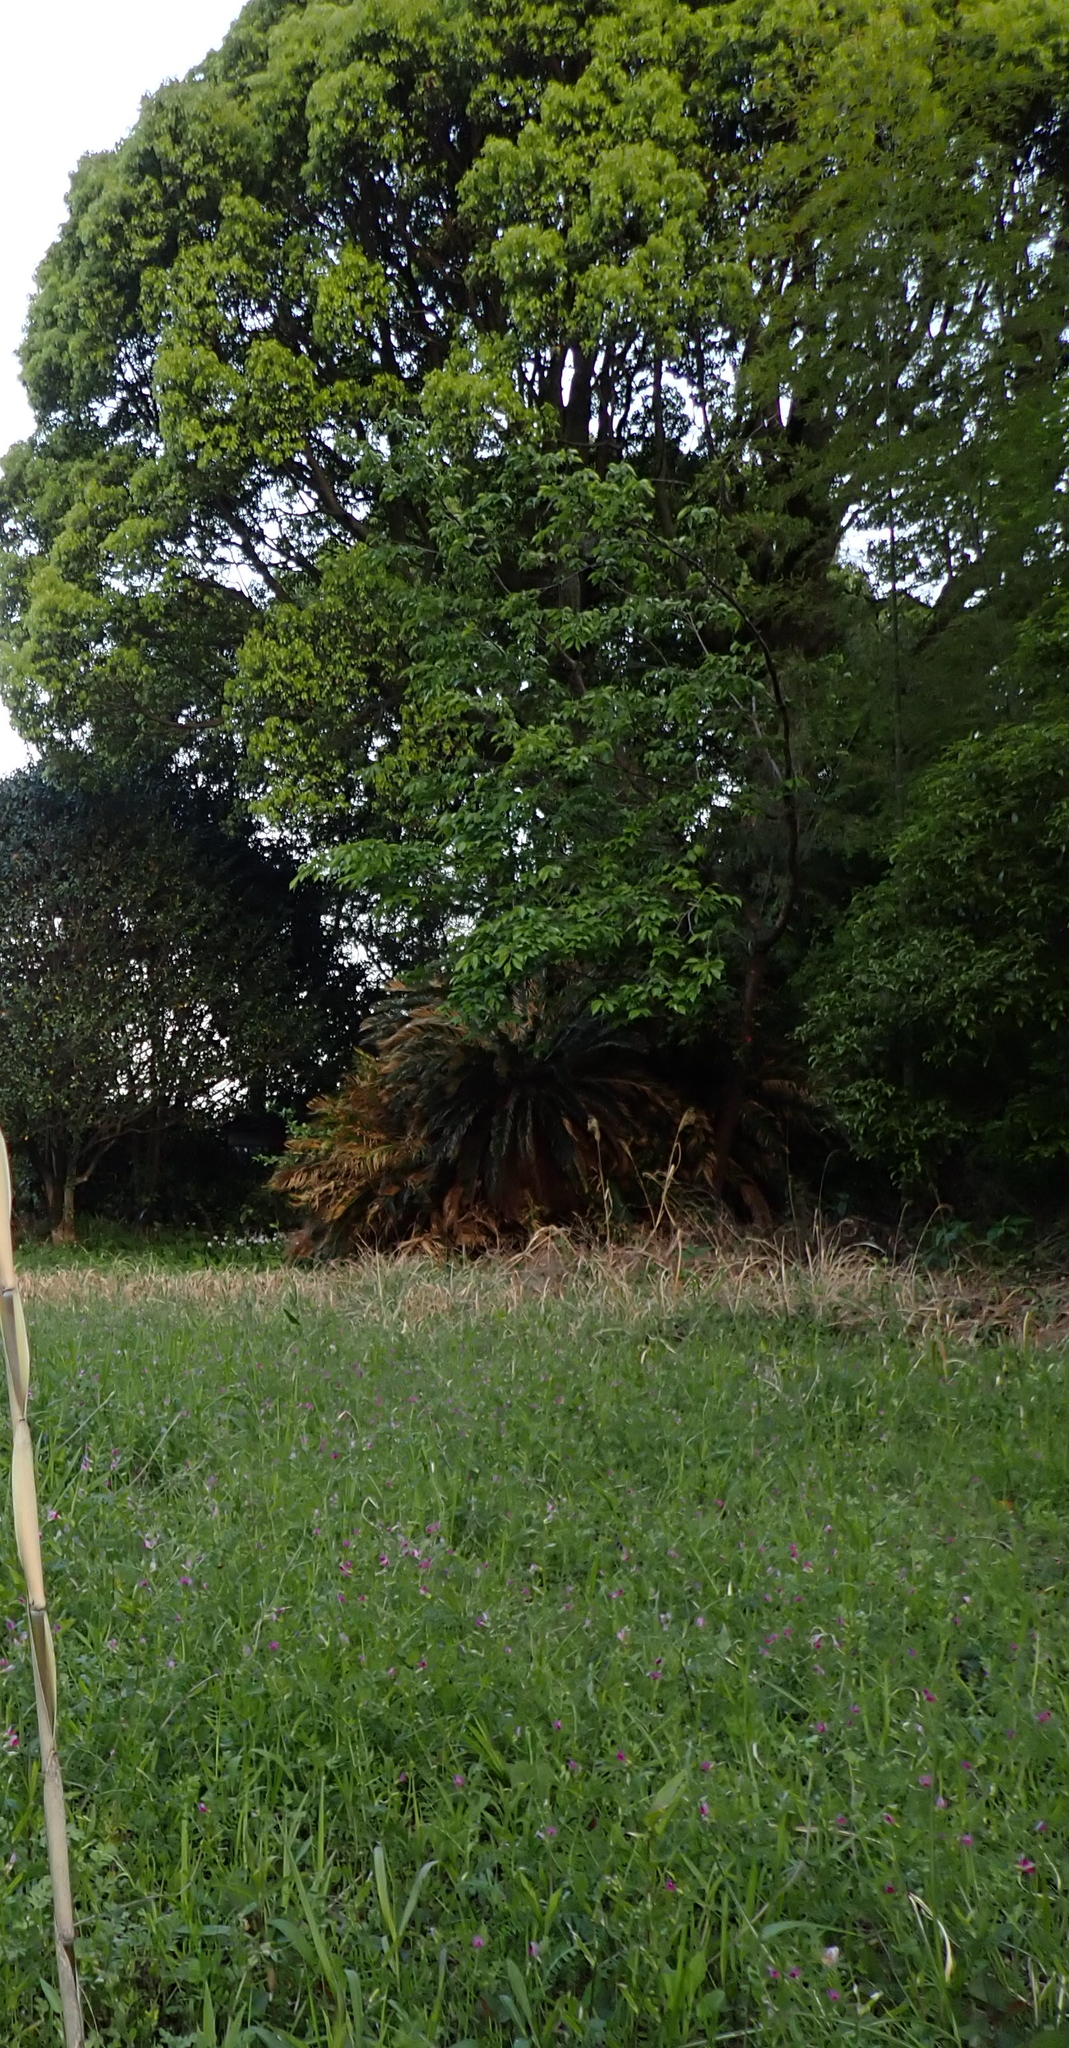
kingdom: Plantae
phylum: Tracheophyta
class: Cycadopsida
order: Cycadales
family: Cycadaceae
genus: Cycas
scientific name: Cycas revoluta
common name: Sago palm
